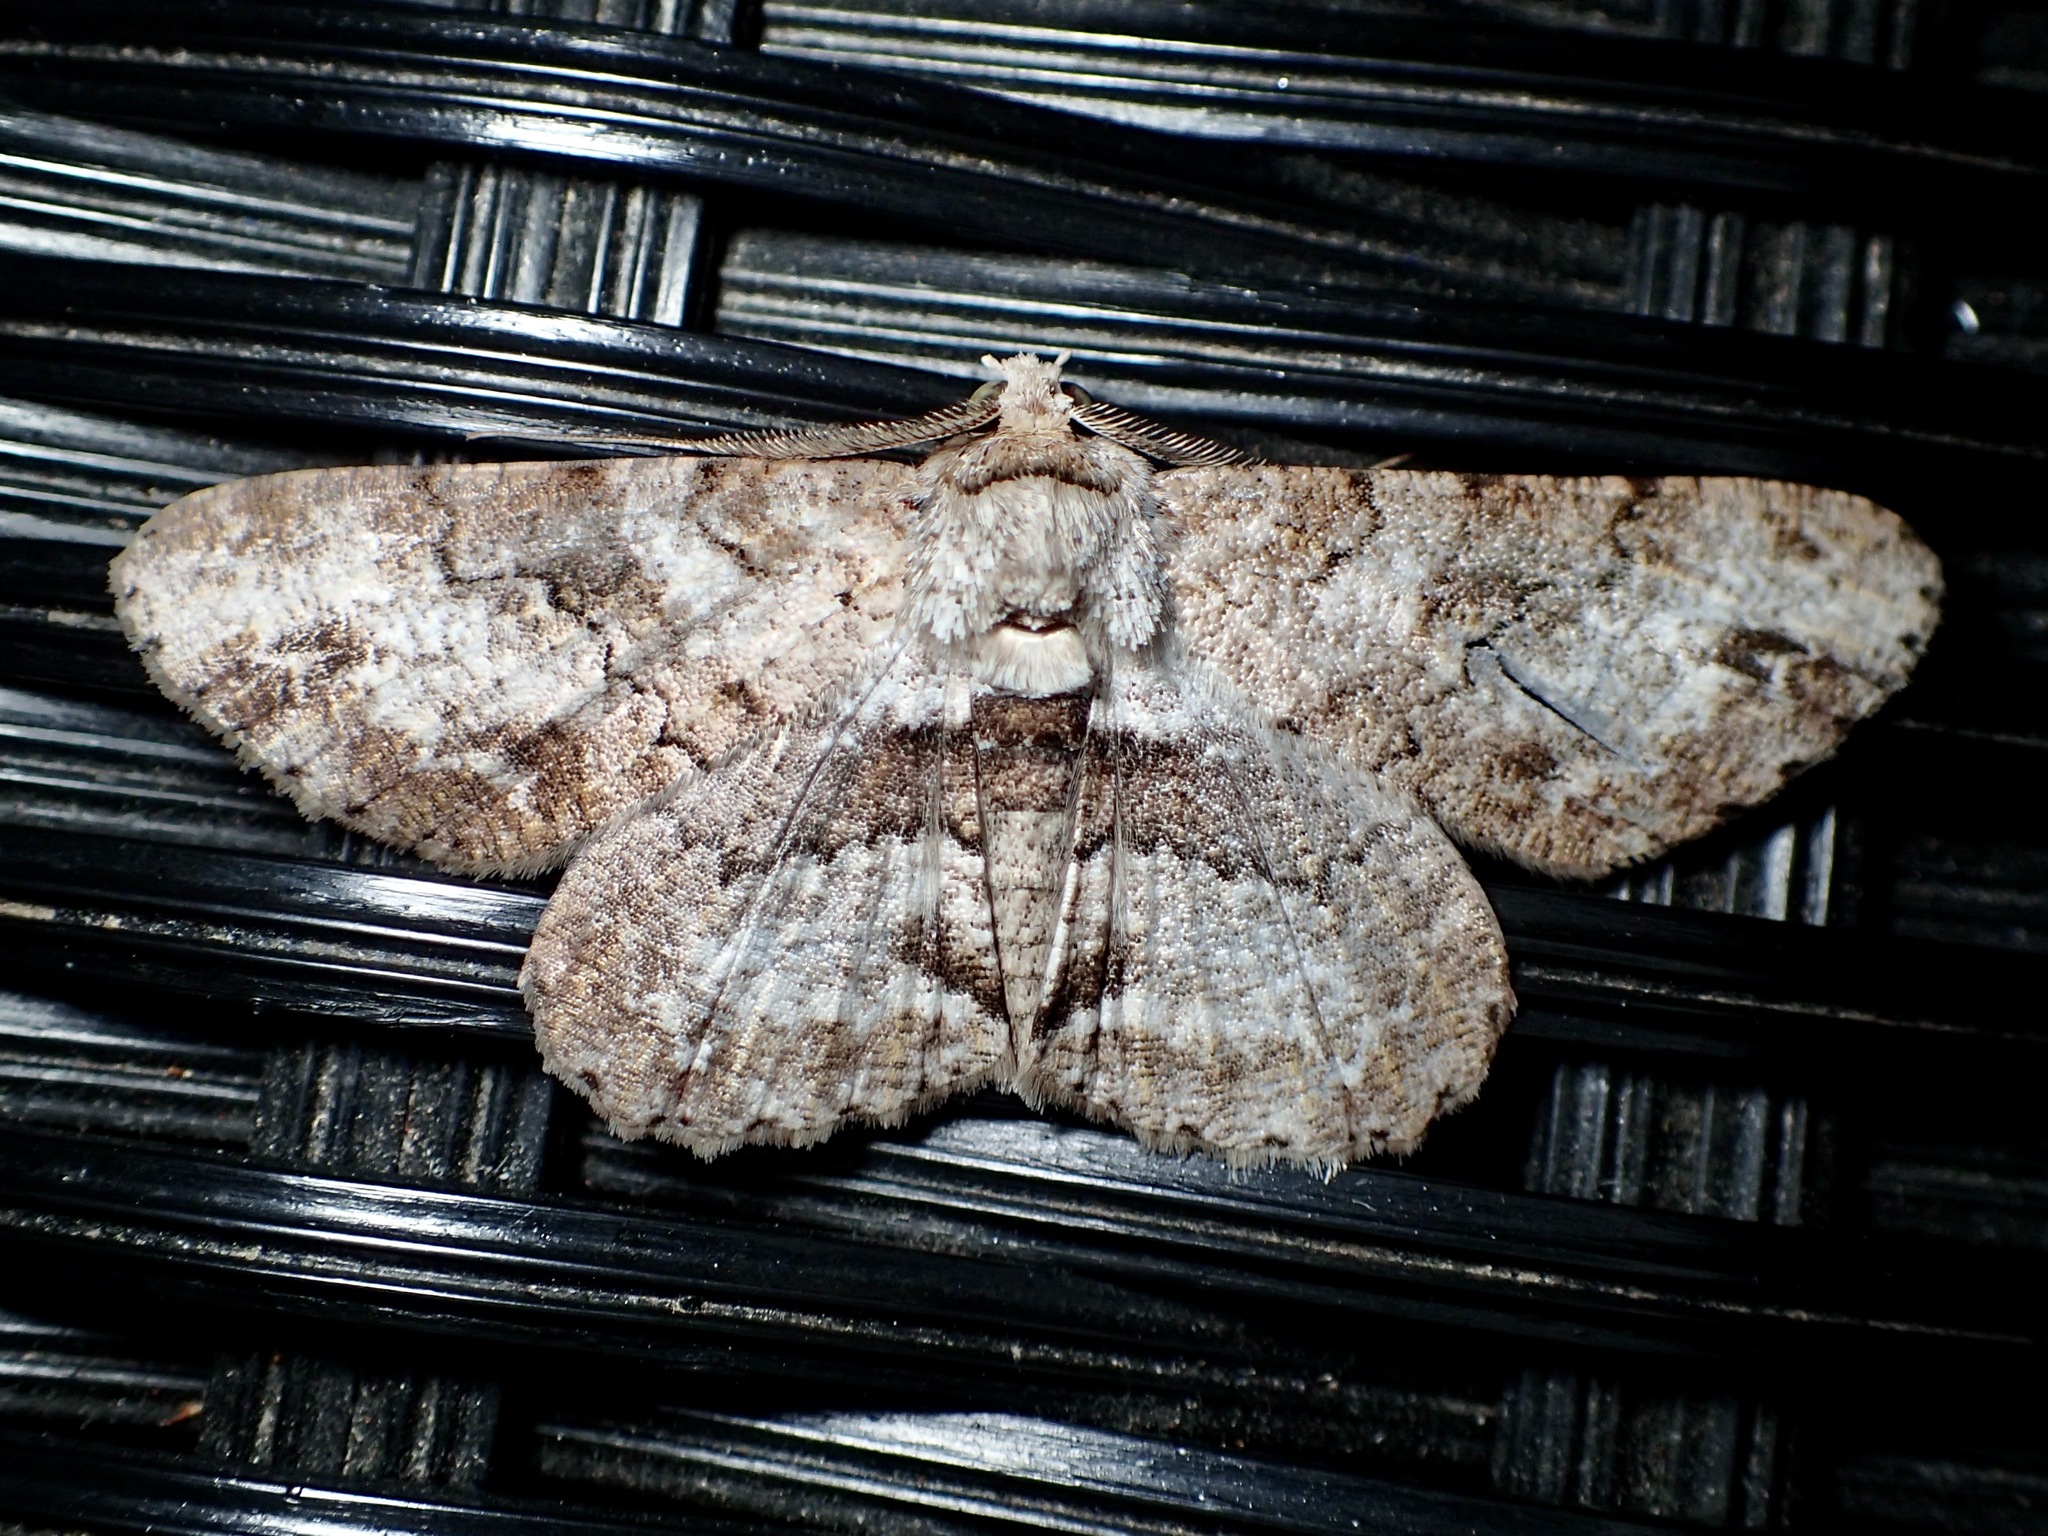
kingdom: Animalia
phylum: Arthropoda
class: Insecta
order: Lepidoptera
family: Geometridae
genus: Cleora
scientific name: Cleora repetita
